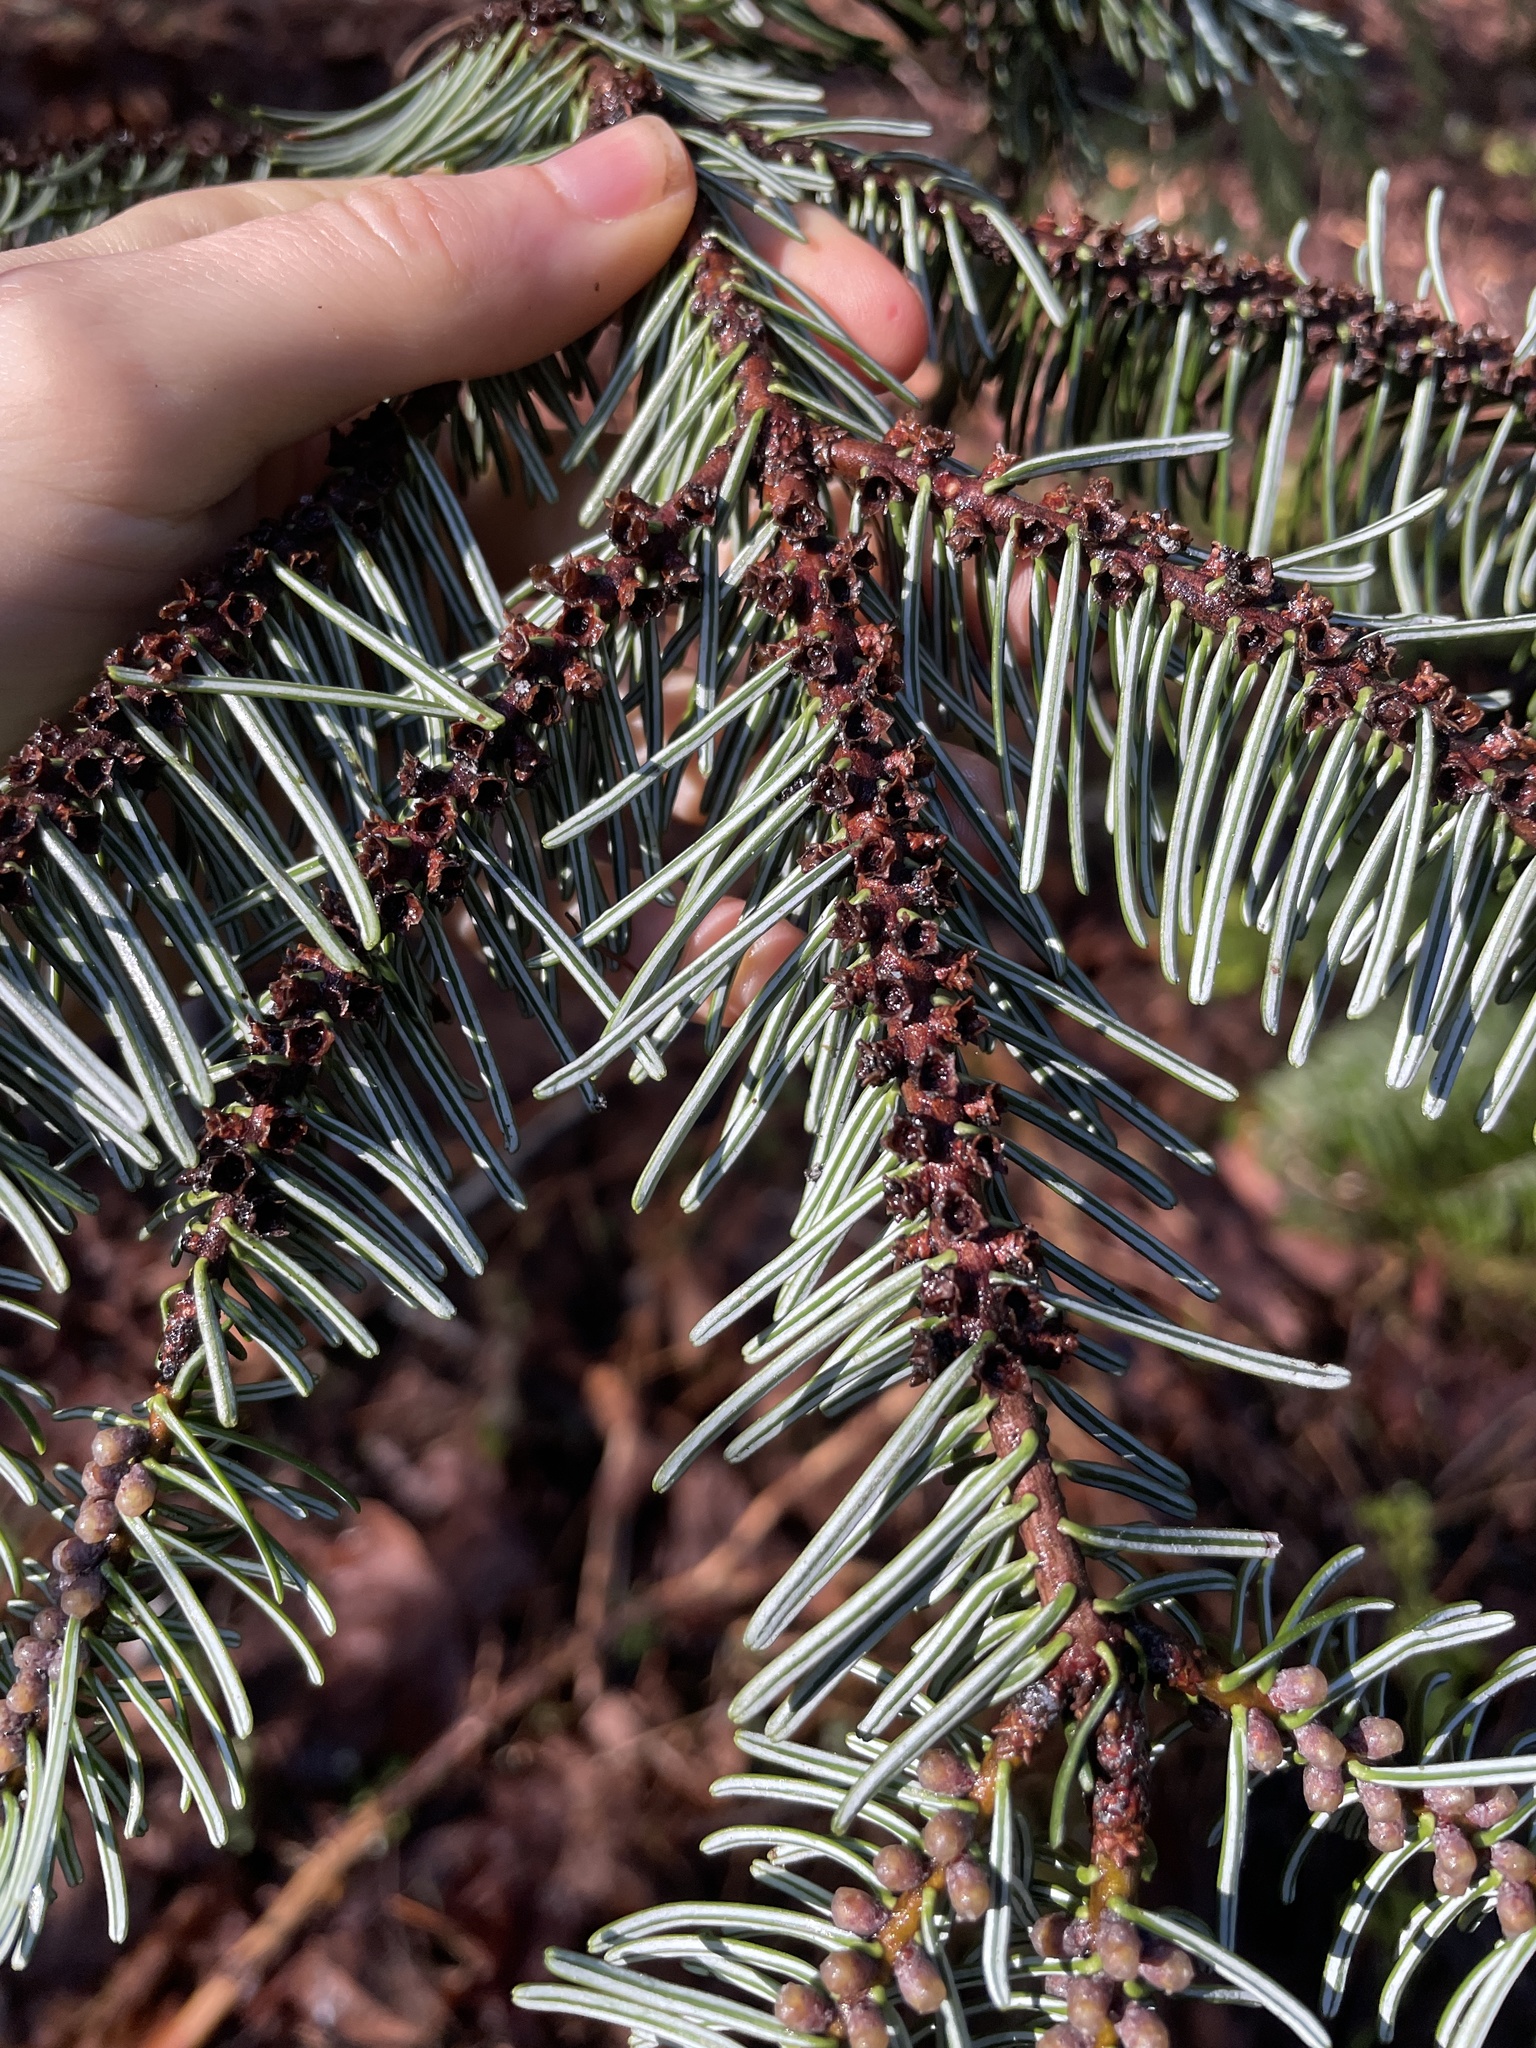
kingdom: Plantae
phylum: Tracheophyta
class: Pinopsida
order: Pinales
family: Pinaceae
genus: Abies
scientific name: Abies amabilis
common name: Pacific silver fir
